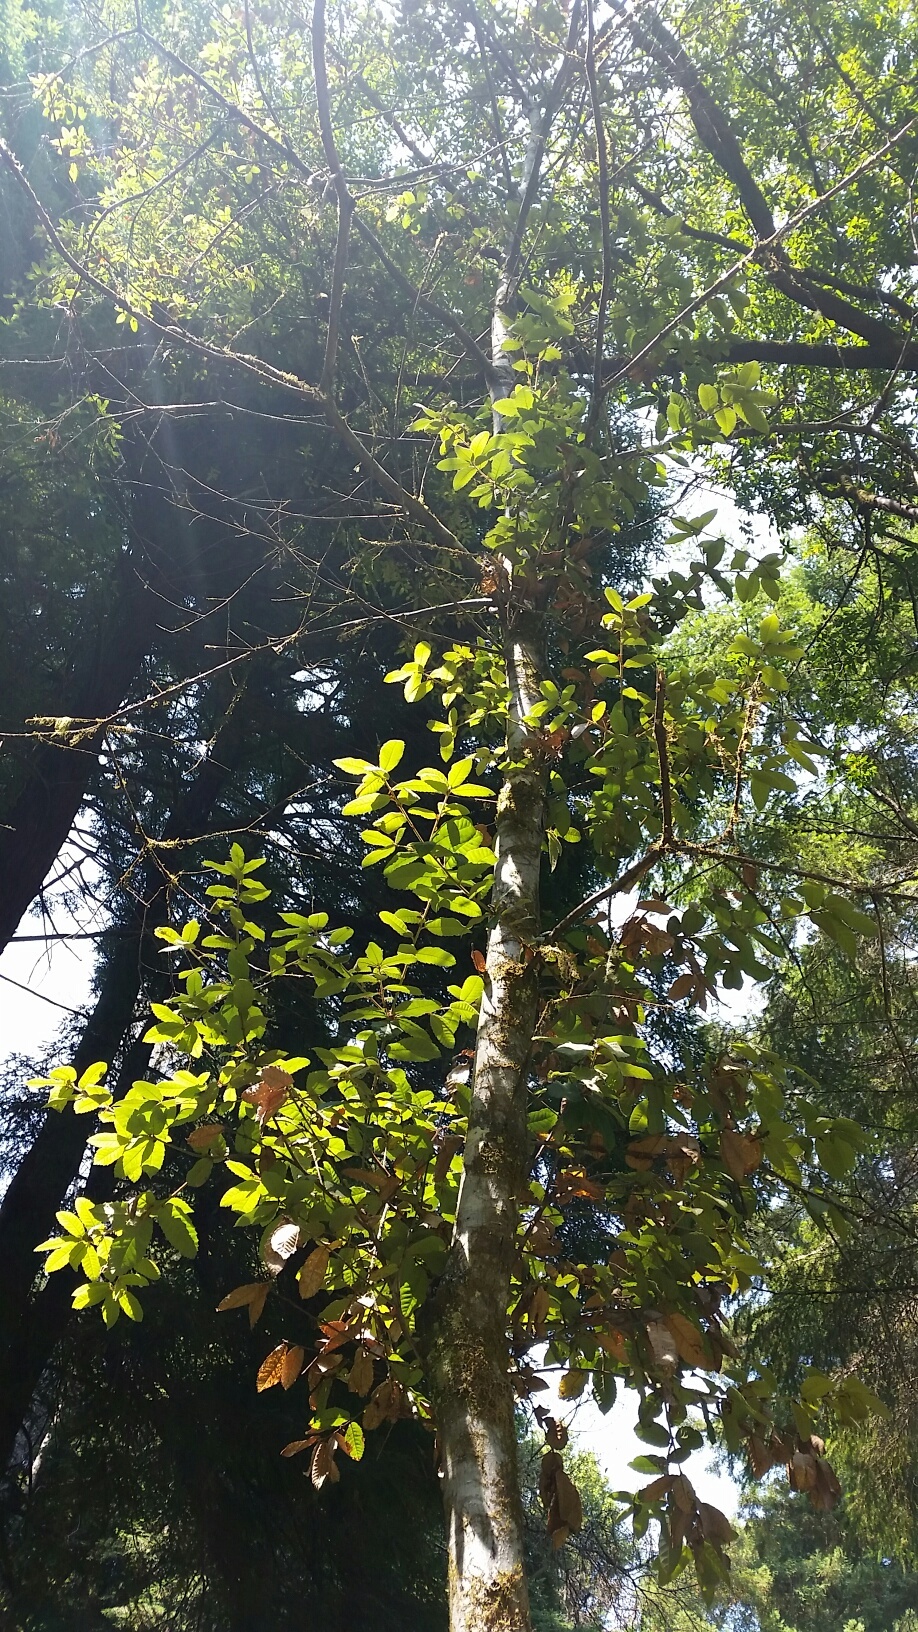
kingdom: Plantae
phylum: Tracheophyta
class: Magnoliopsida
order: Fagales
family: Fagaceae
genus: Notholithocarpus
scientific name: Notholithocarpus densiflorus
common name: Tan bark oak
